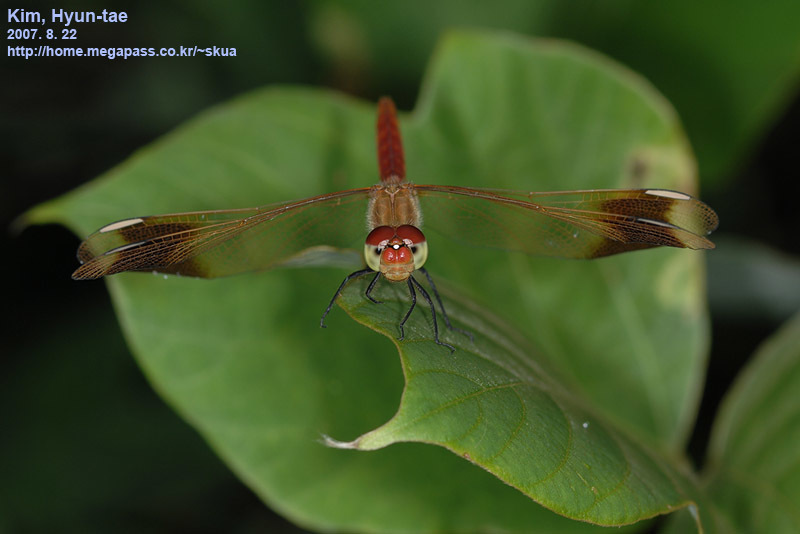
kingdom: Animalia
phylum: Arthropoda
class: Insecta
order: Odonata
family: Libellulidae
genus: Sympetrum
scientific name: Sympetrum pedemontanum
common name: Banded darter
